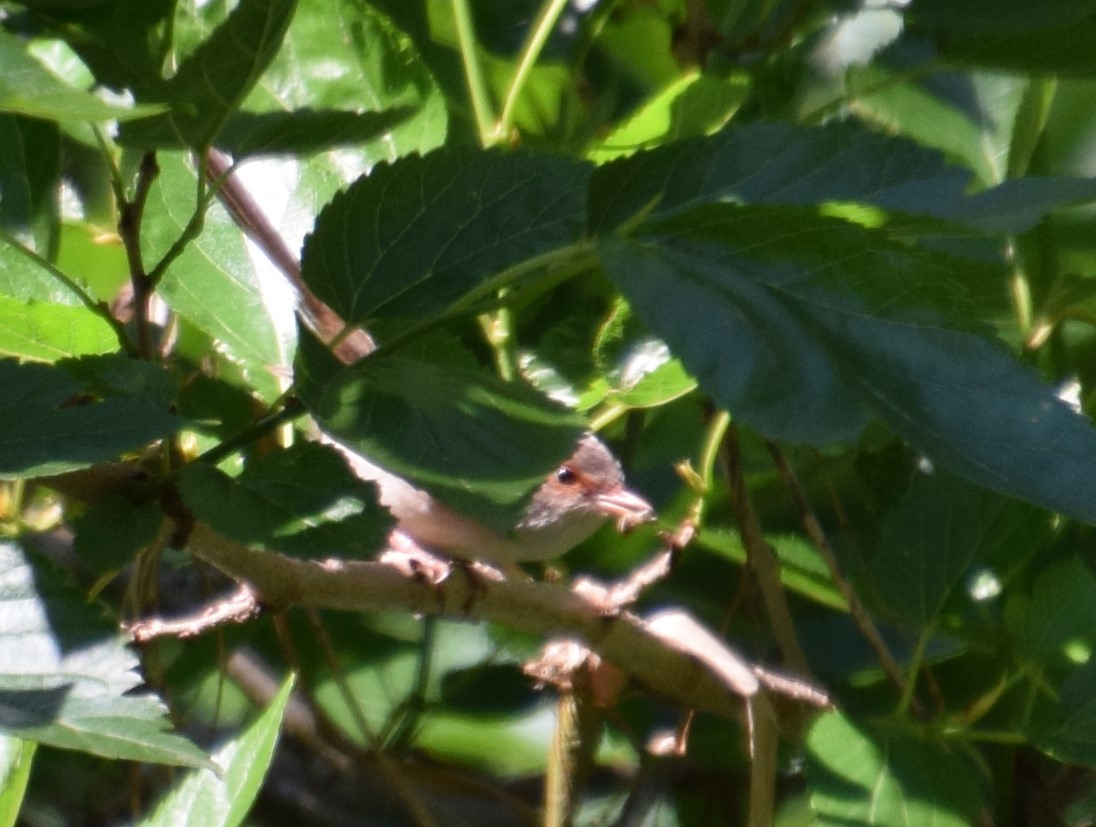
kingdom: Animalia
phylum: Chordata
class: Aves
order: Passeriformes
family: Maluridae
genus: Malurus
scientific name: Malurus cyaneus
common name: Superb fairywren
